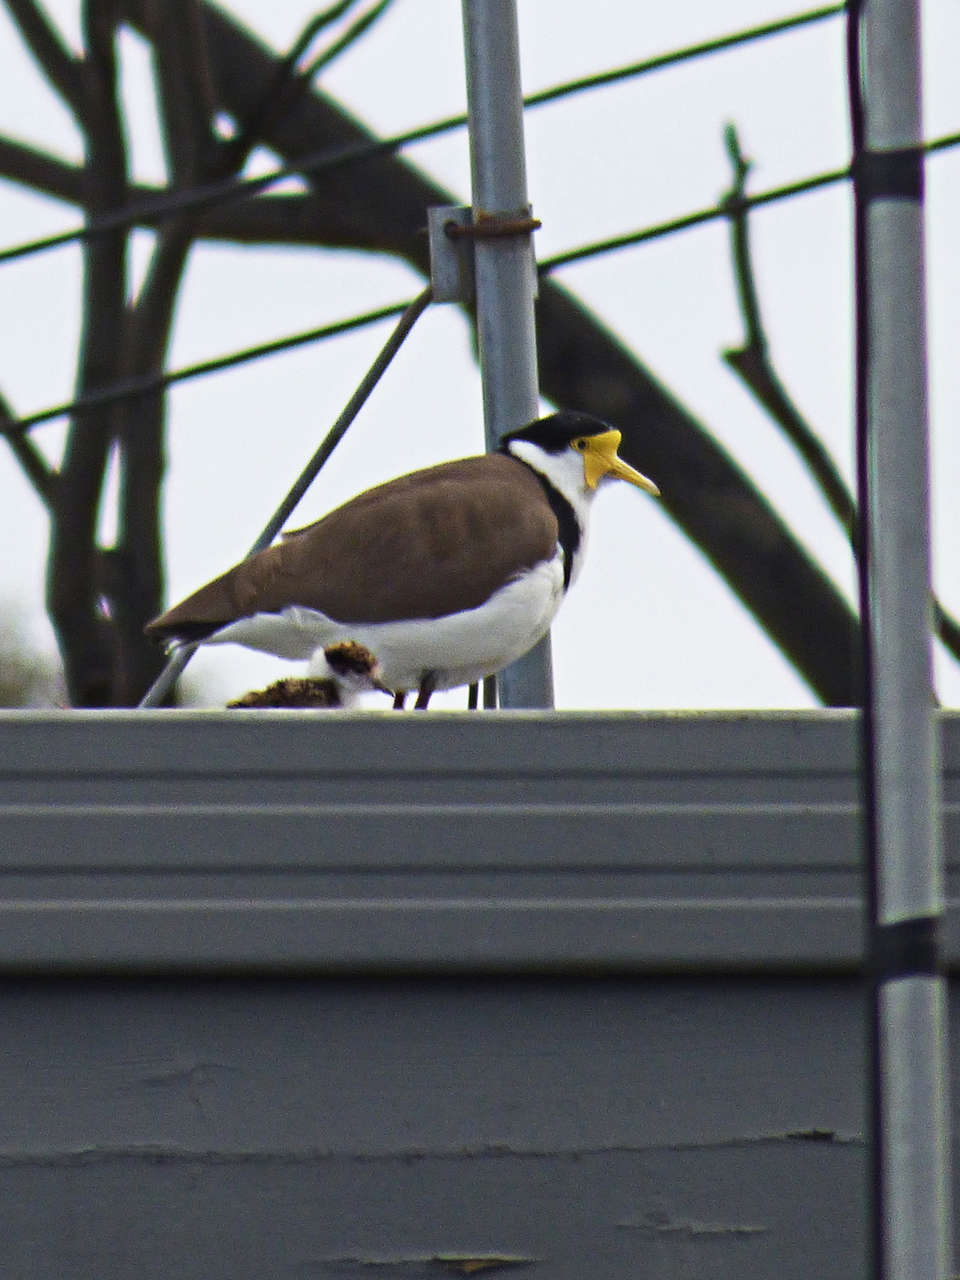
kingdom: Animalia
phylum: Chordata
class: Aves
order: Charadriiformes
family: Charadriidae
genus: Vanellus
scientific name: Vanellus miles
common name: Masked lapwing
